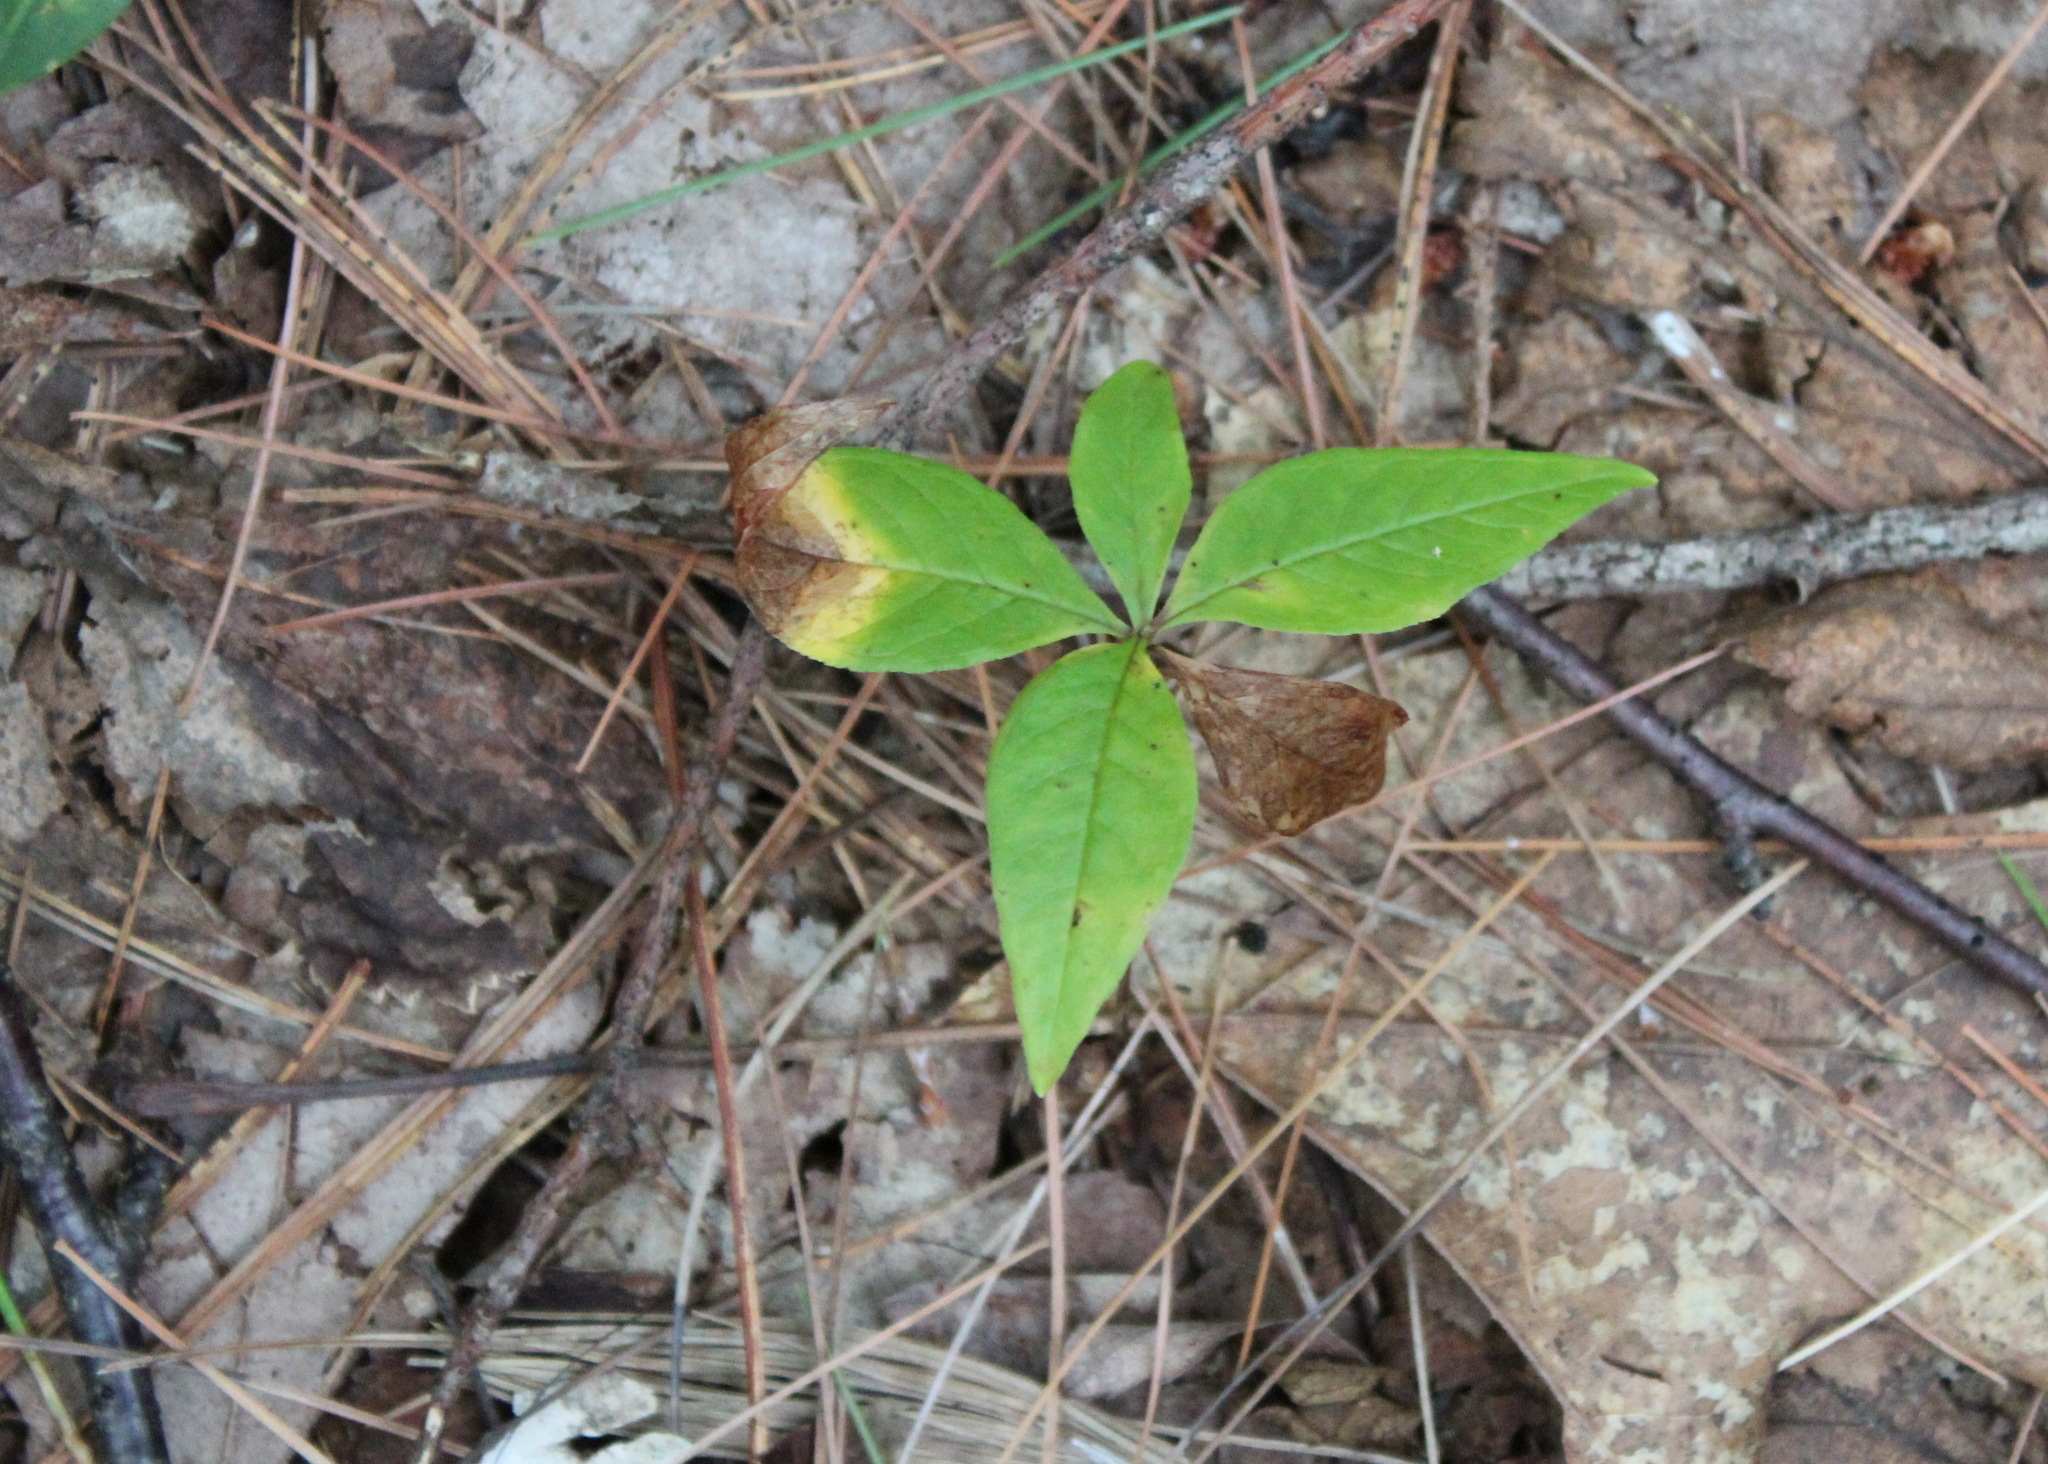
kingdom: Plantae
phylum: Tracheophyta
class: Magnoliopsida
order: Ericales
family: Primulaceae
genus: Lysimachia
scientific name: Lysimachia borealis
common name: American starflower
